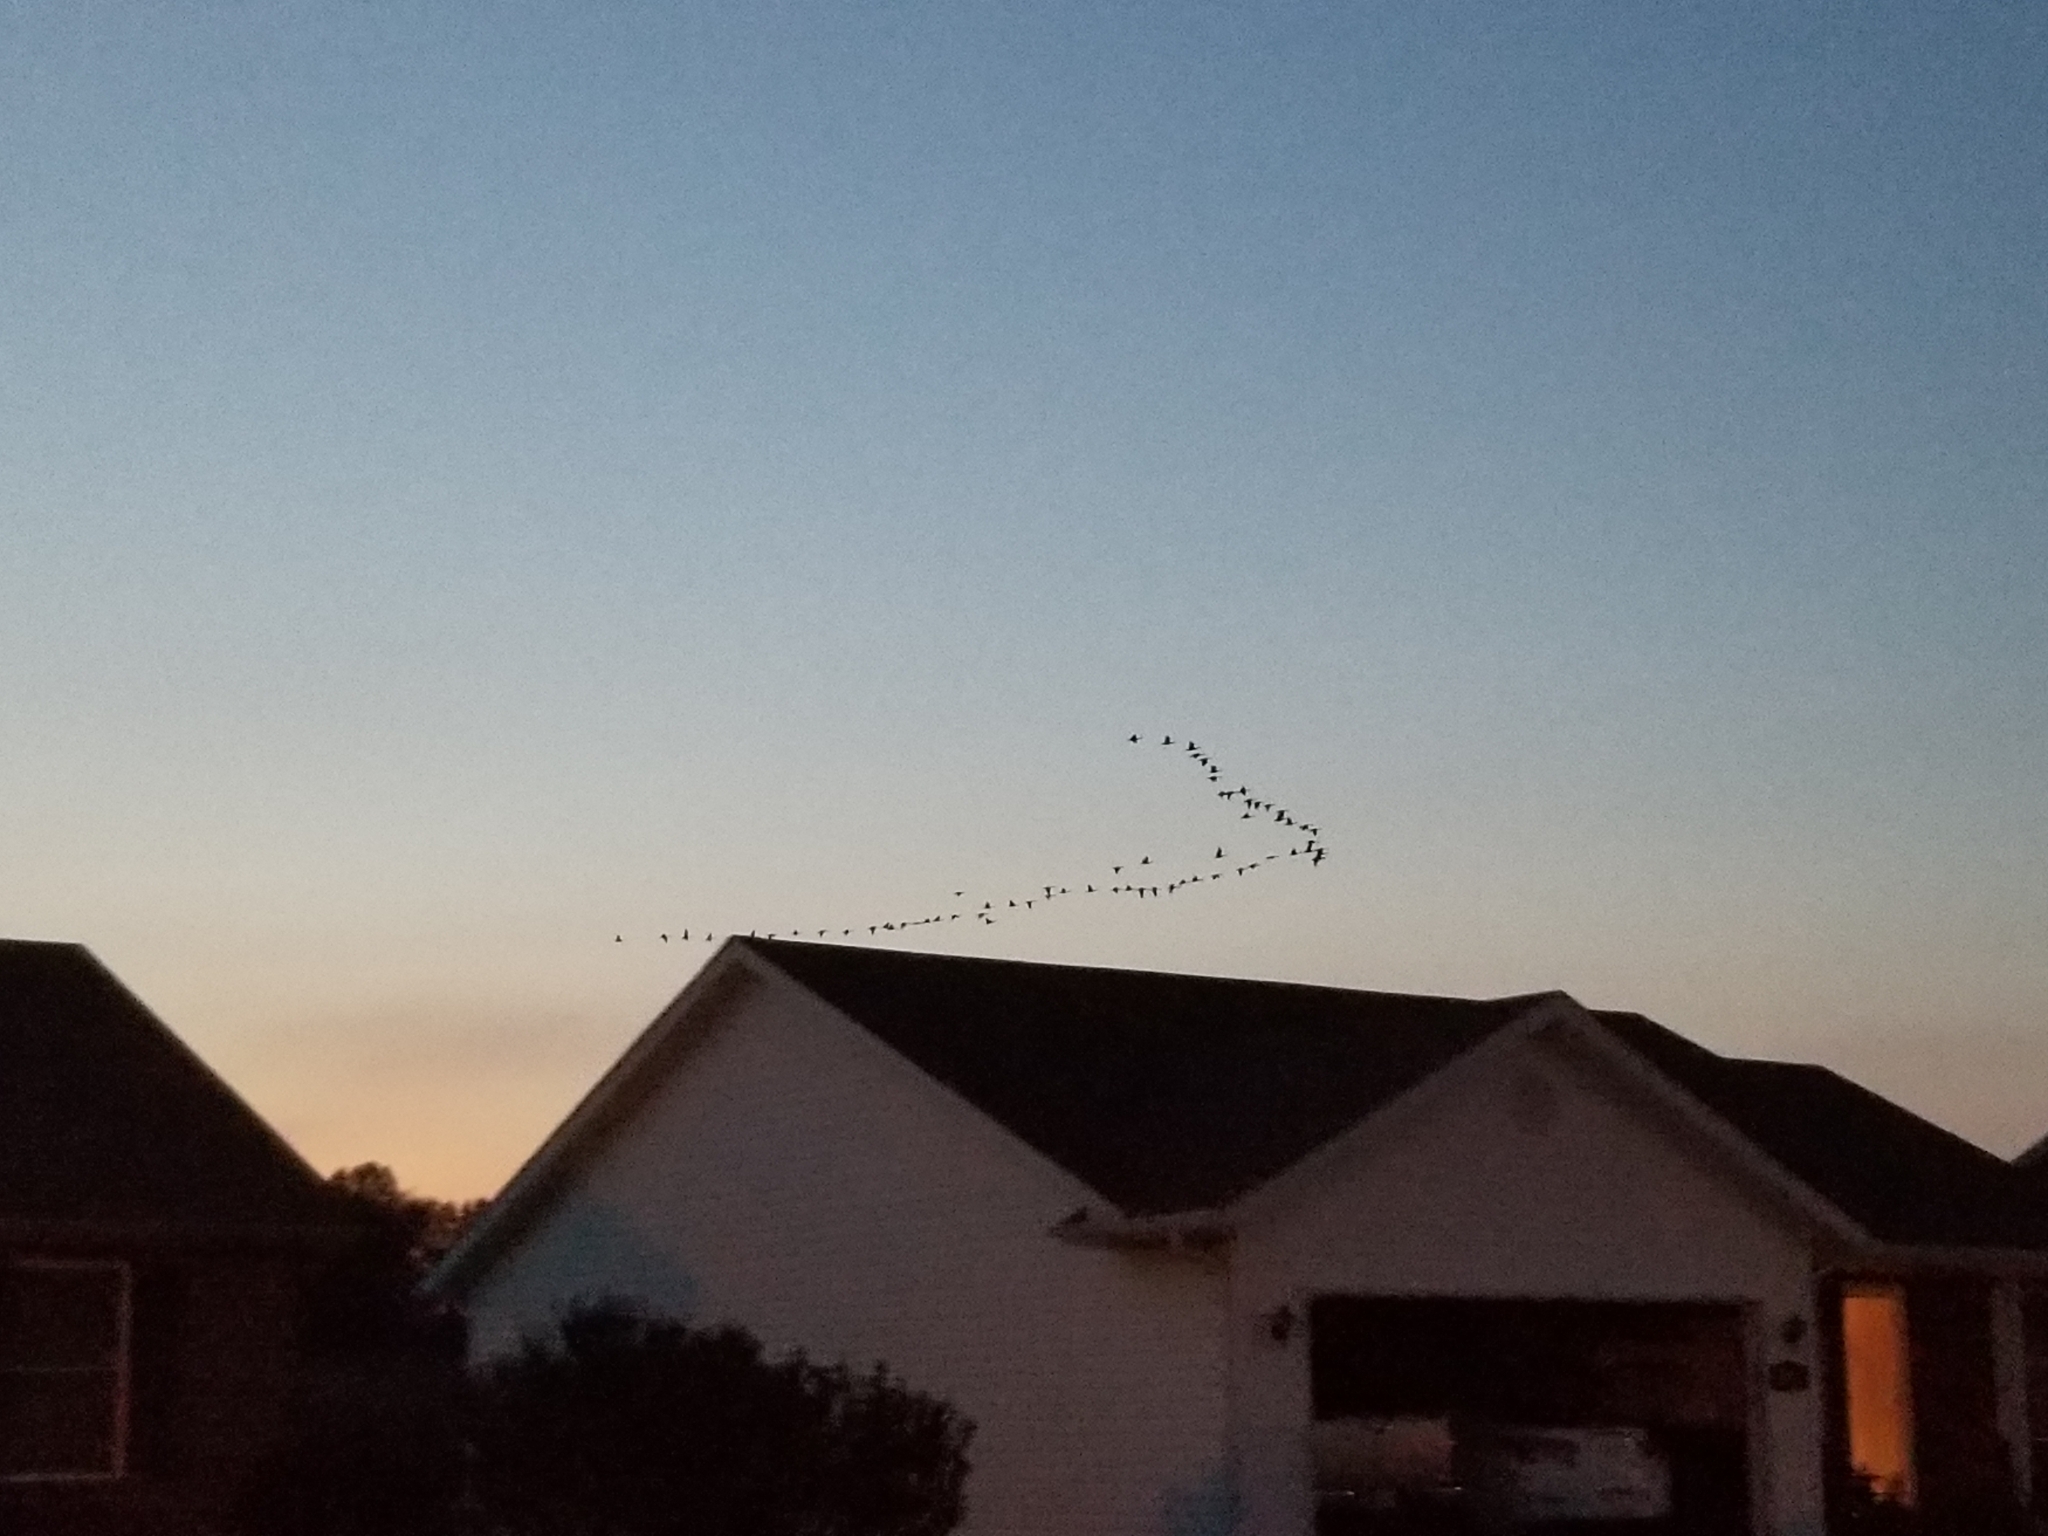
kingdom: Animalia
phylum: Chordata
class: Aves
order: Anseriformes
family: Anatidae
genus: Branta
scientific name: Branta canadensis
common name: Canada goose
